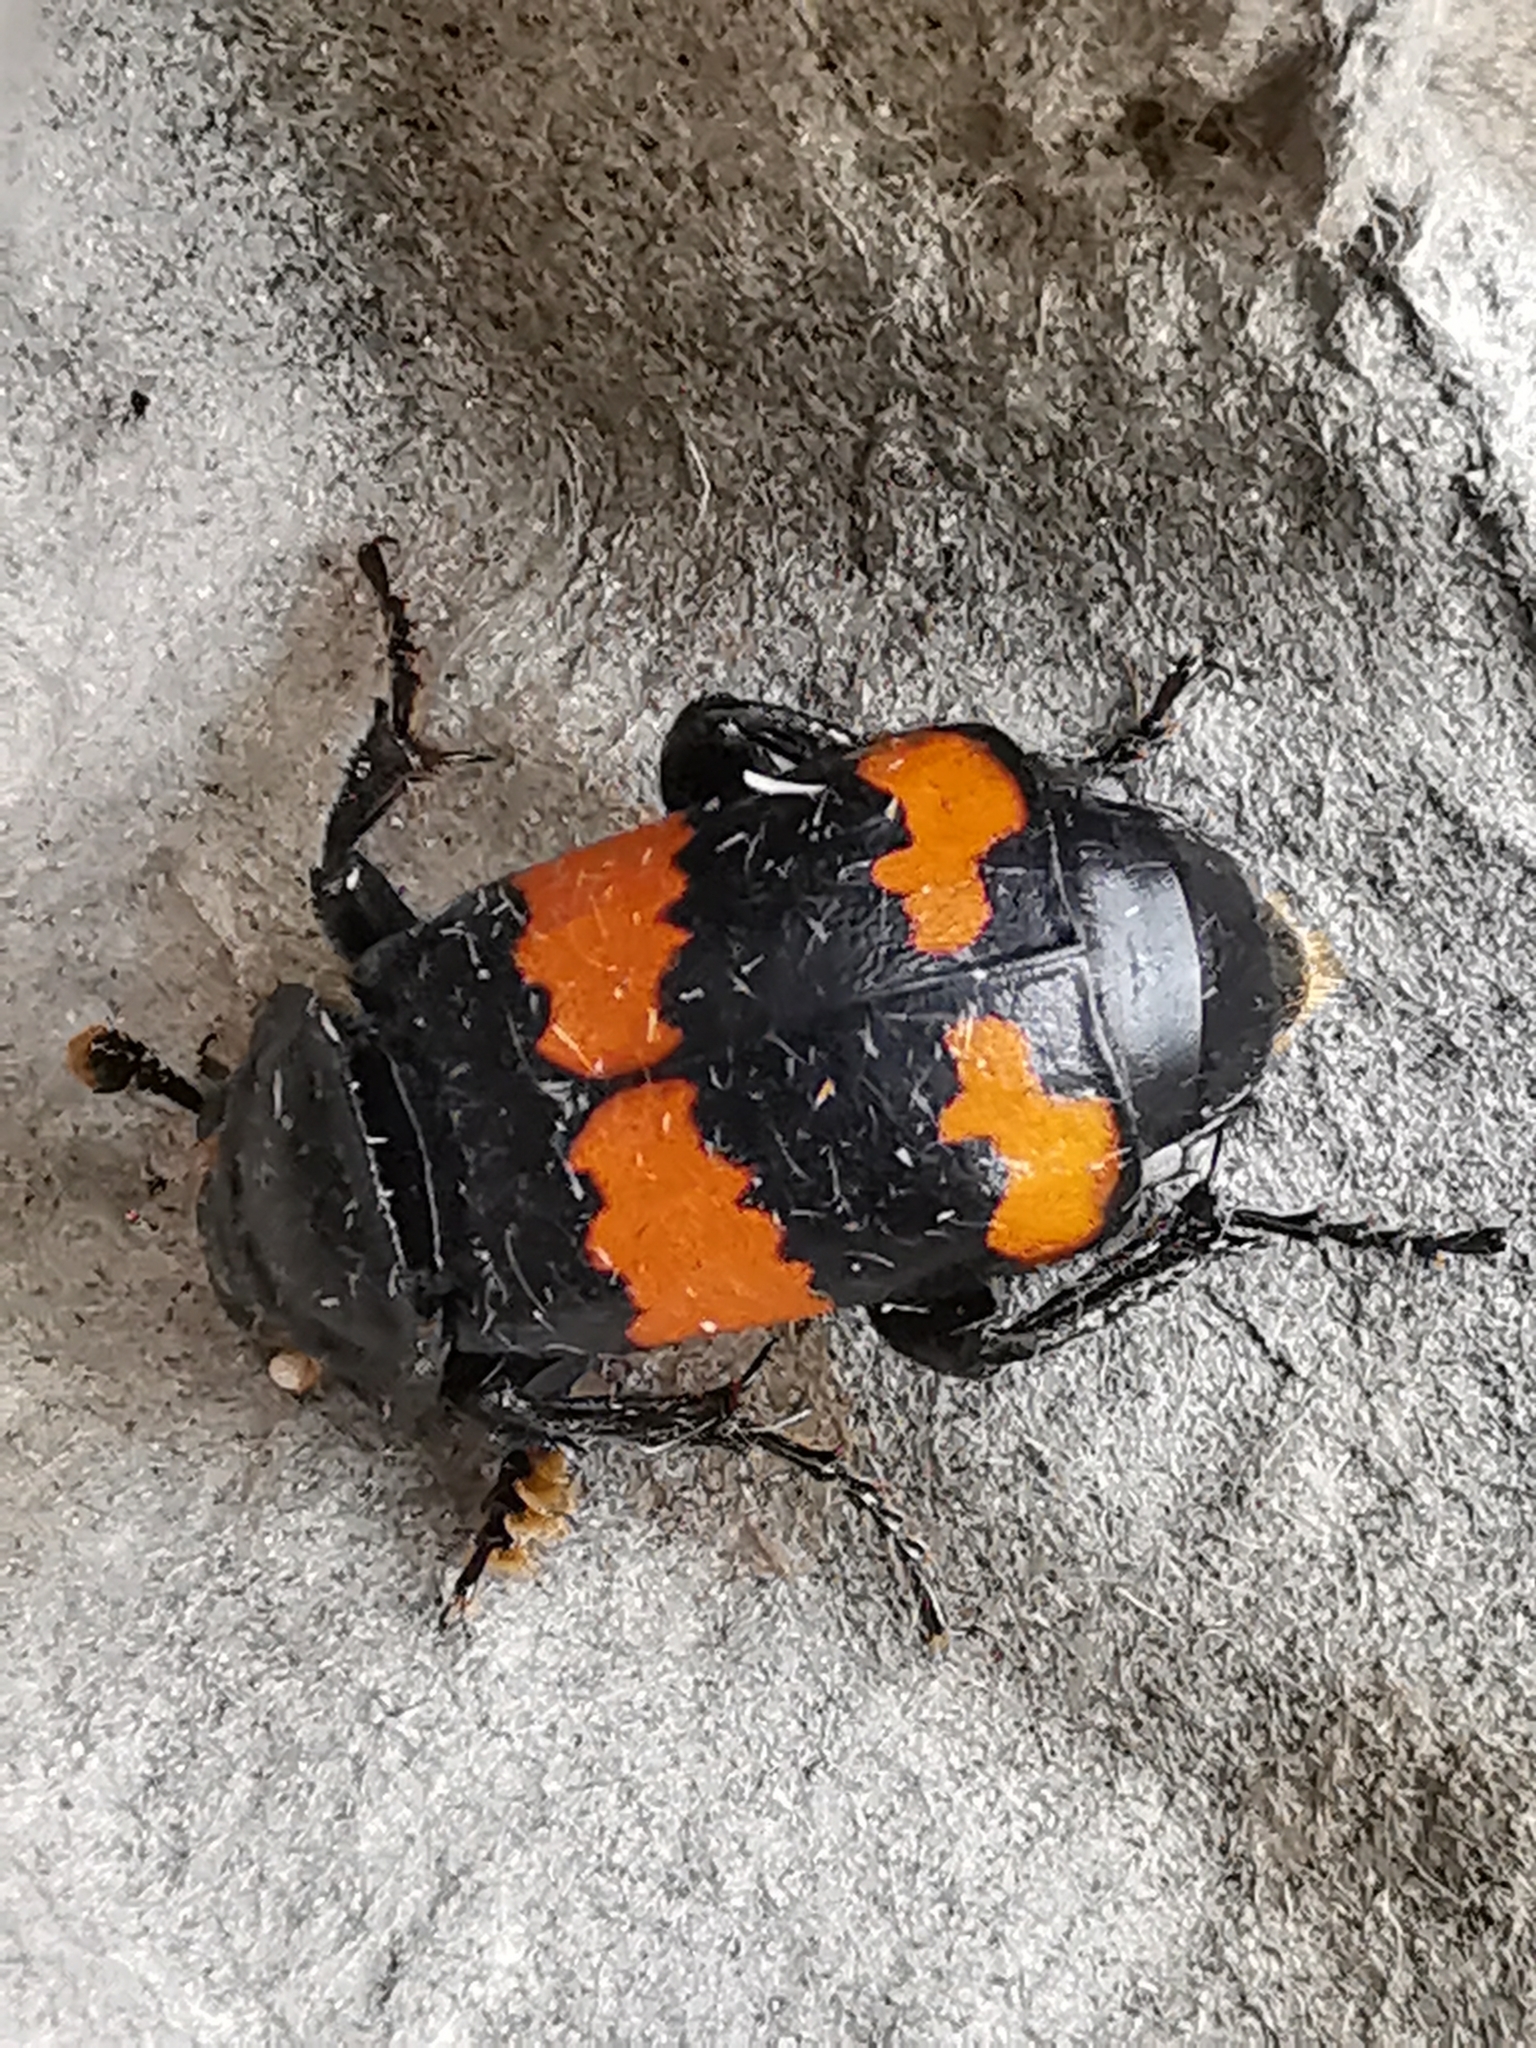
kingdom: Animalia
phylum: Arthropoda
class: Insecta
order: Coleoptera
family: Staphylinidae
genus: Nicrophorus
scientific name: Nicrophorus investigator
